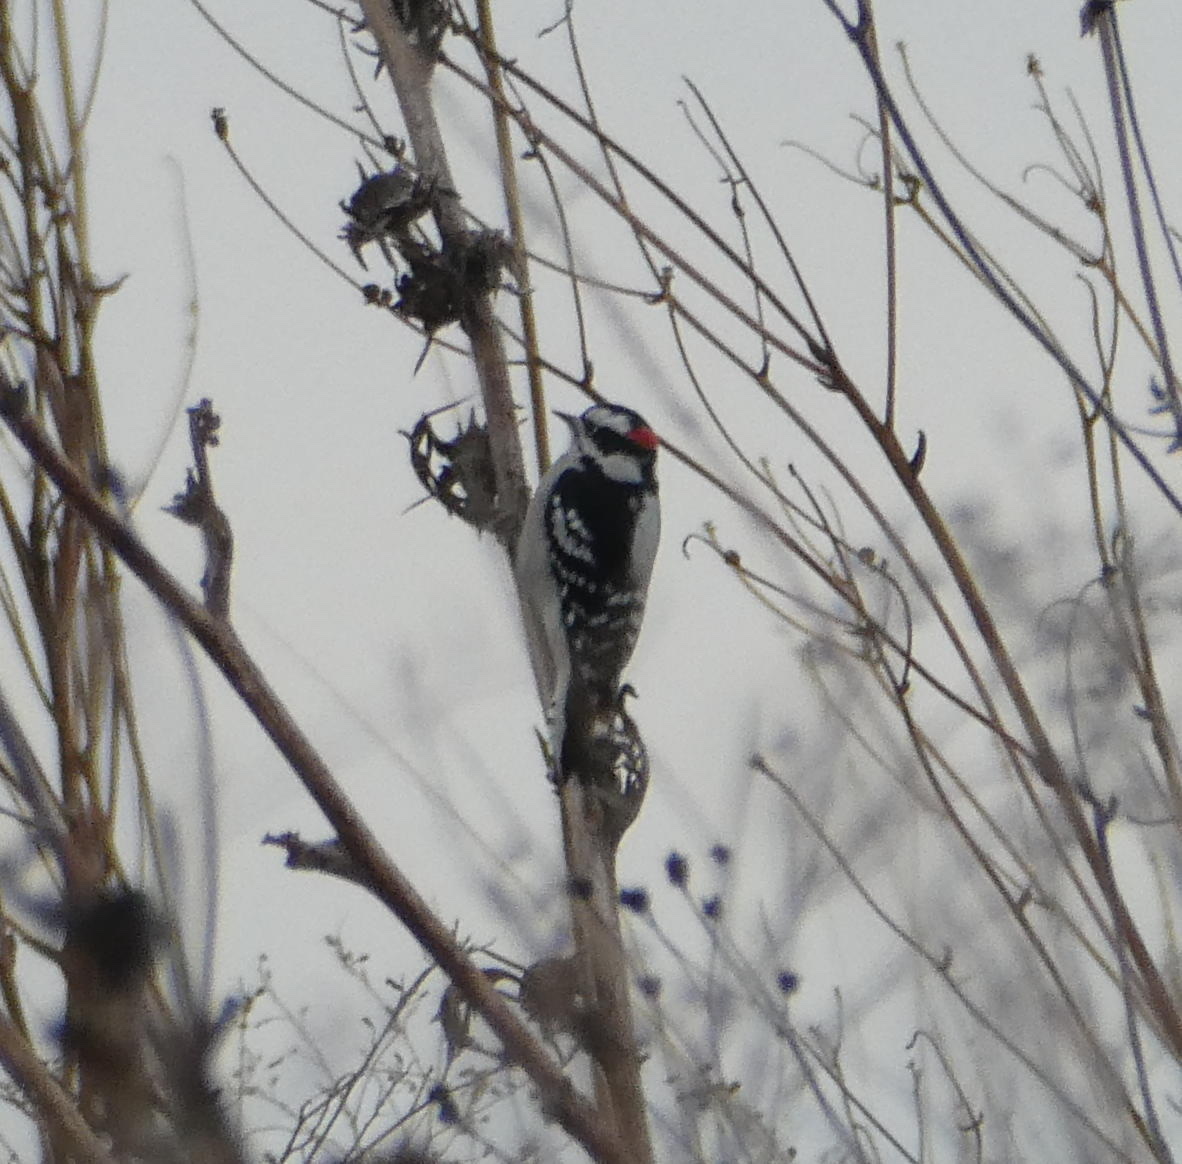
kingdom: Animalia
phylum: Chordata
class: Aves
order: Piciformes
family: Picidae
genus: Dryobates
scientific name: Dryobates pubescens
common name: Downy woodpecker
